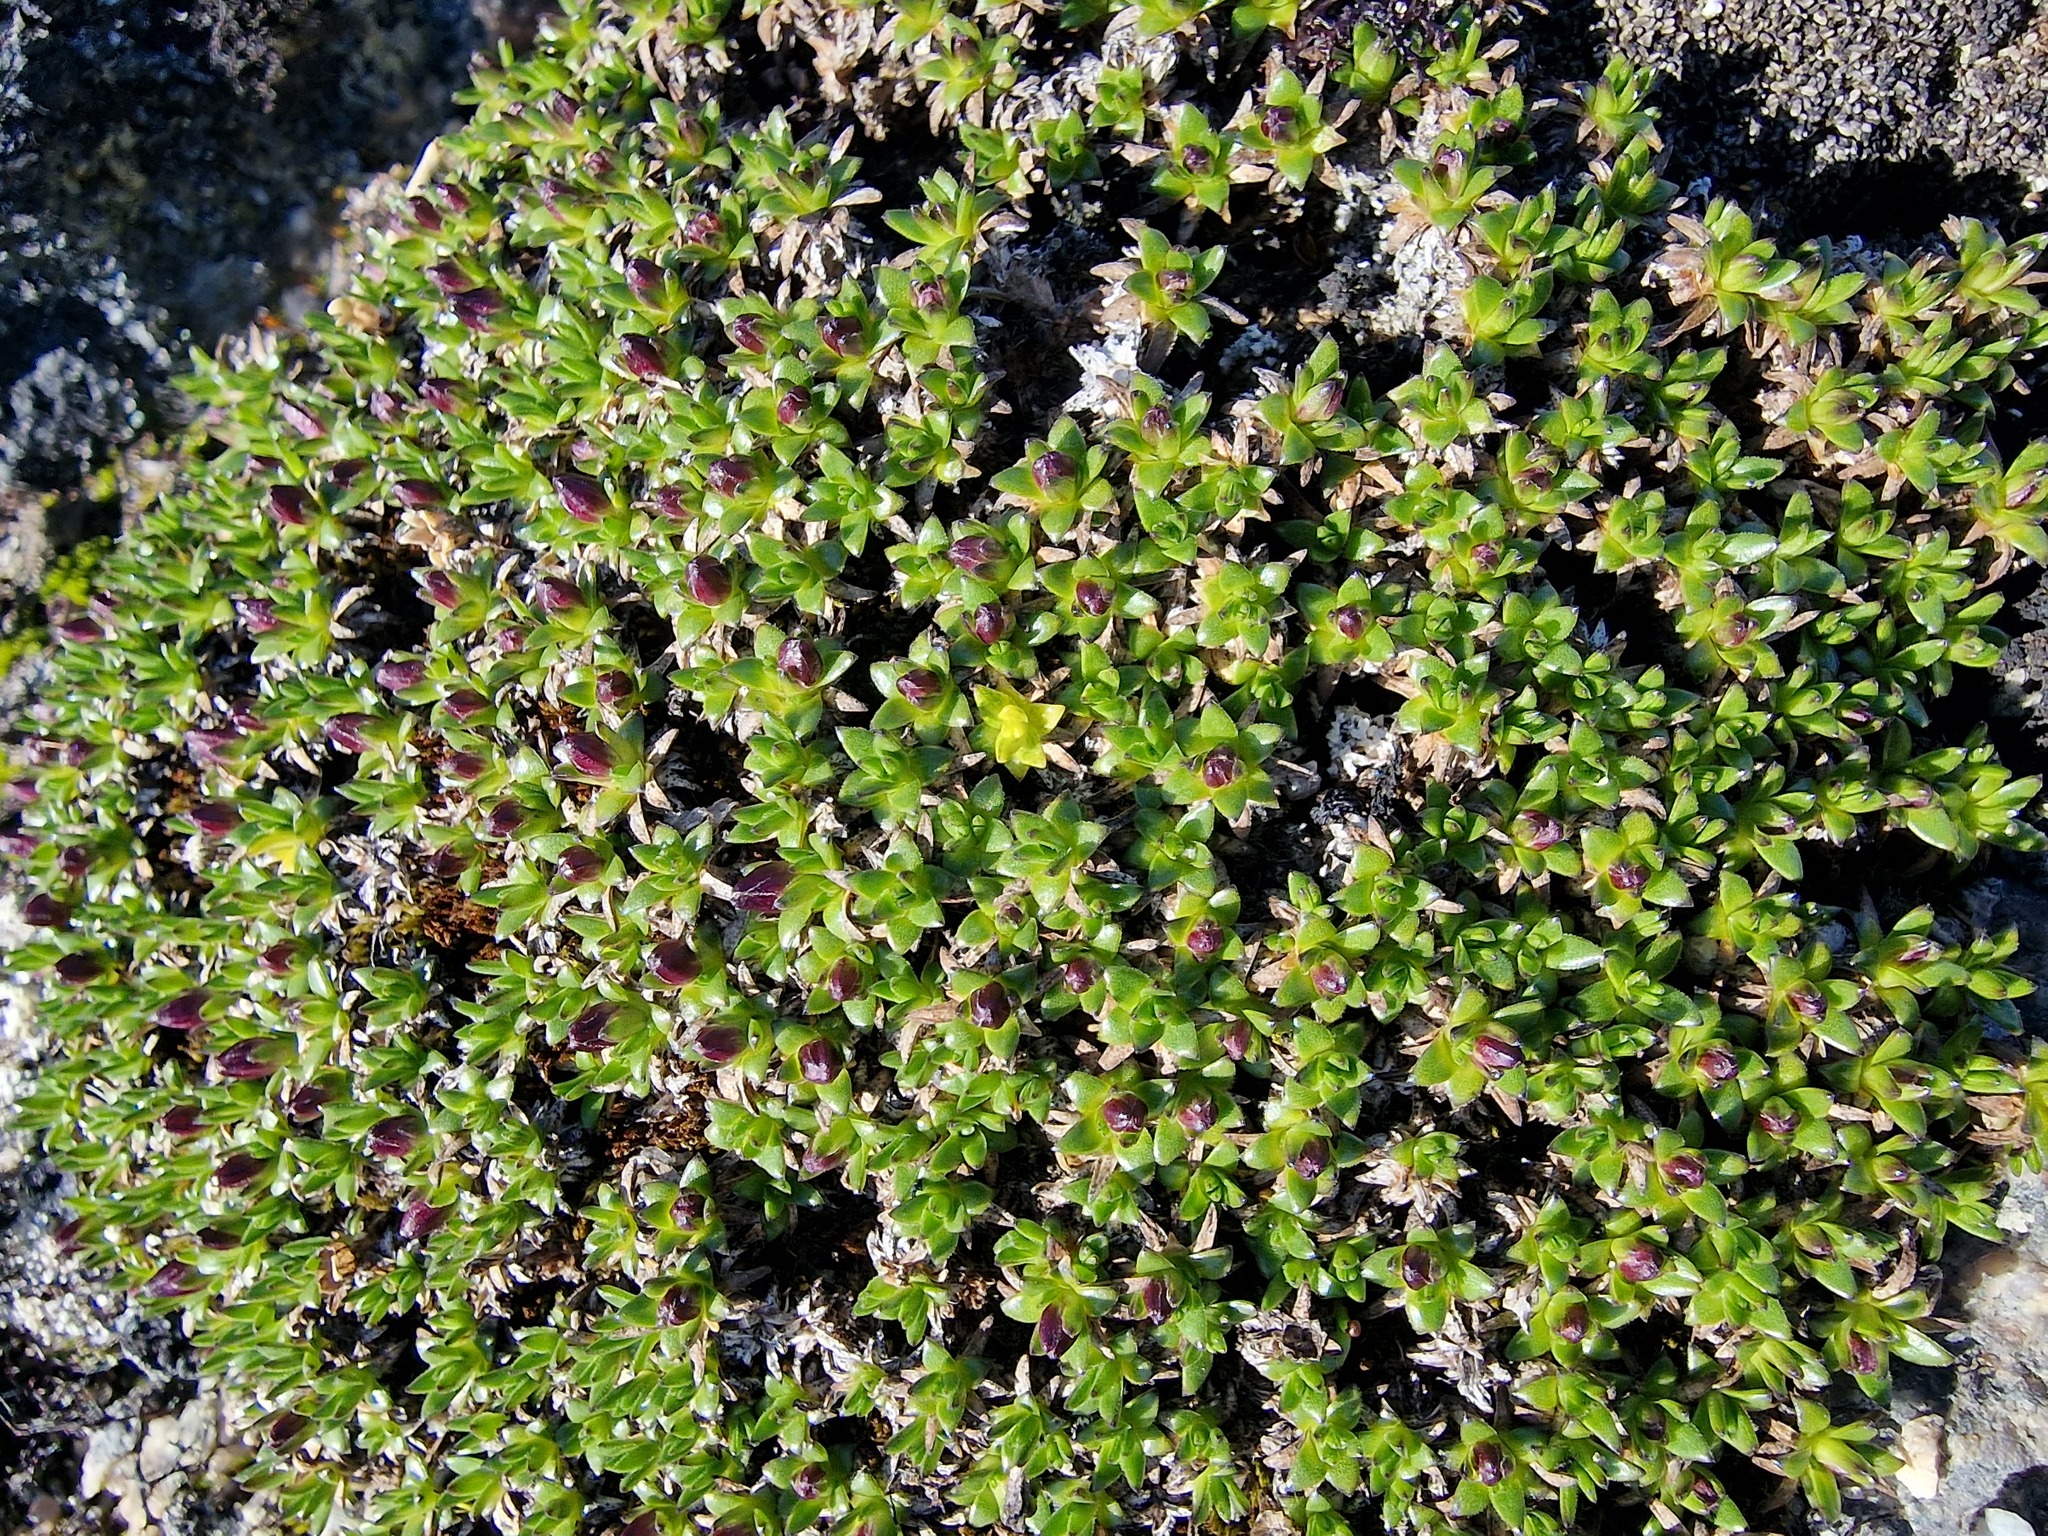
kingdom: Plantae
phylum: Tracheophyta
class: Magnoliopsida
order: Caryophyllales
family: Caryophyllaceae
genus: Silene
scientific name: Silene acaulis
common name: Moss campion
